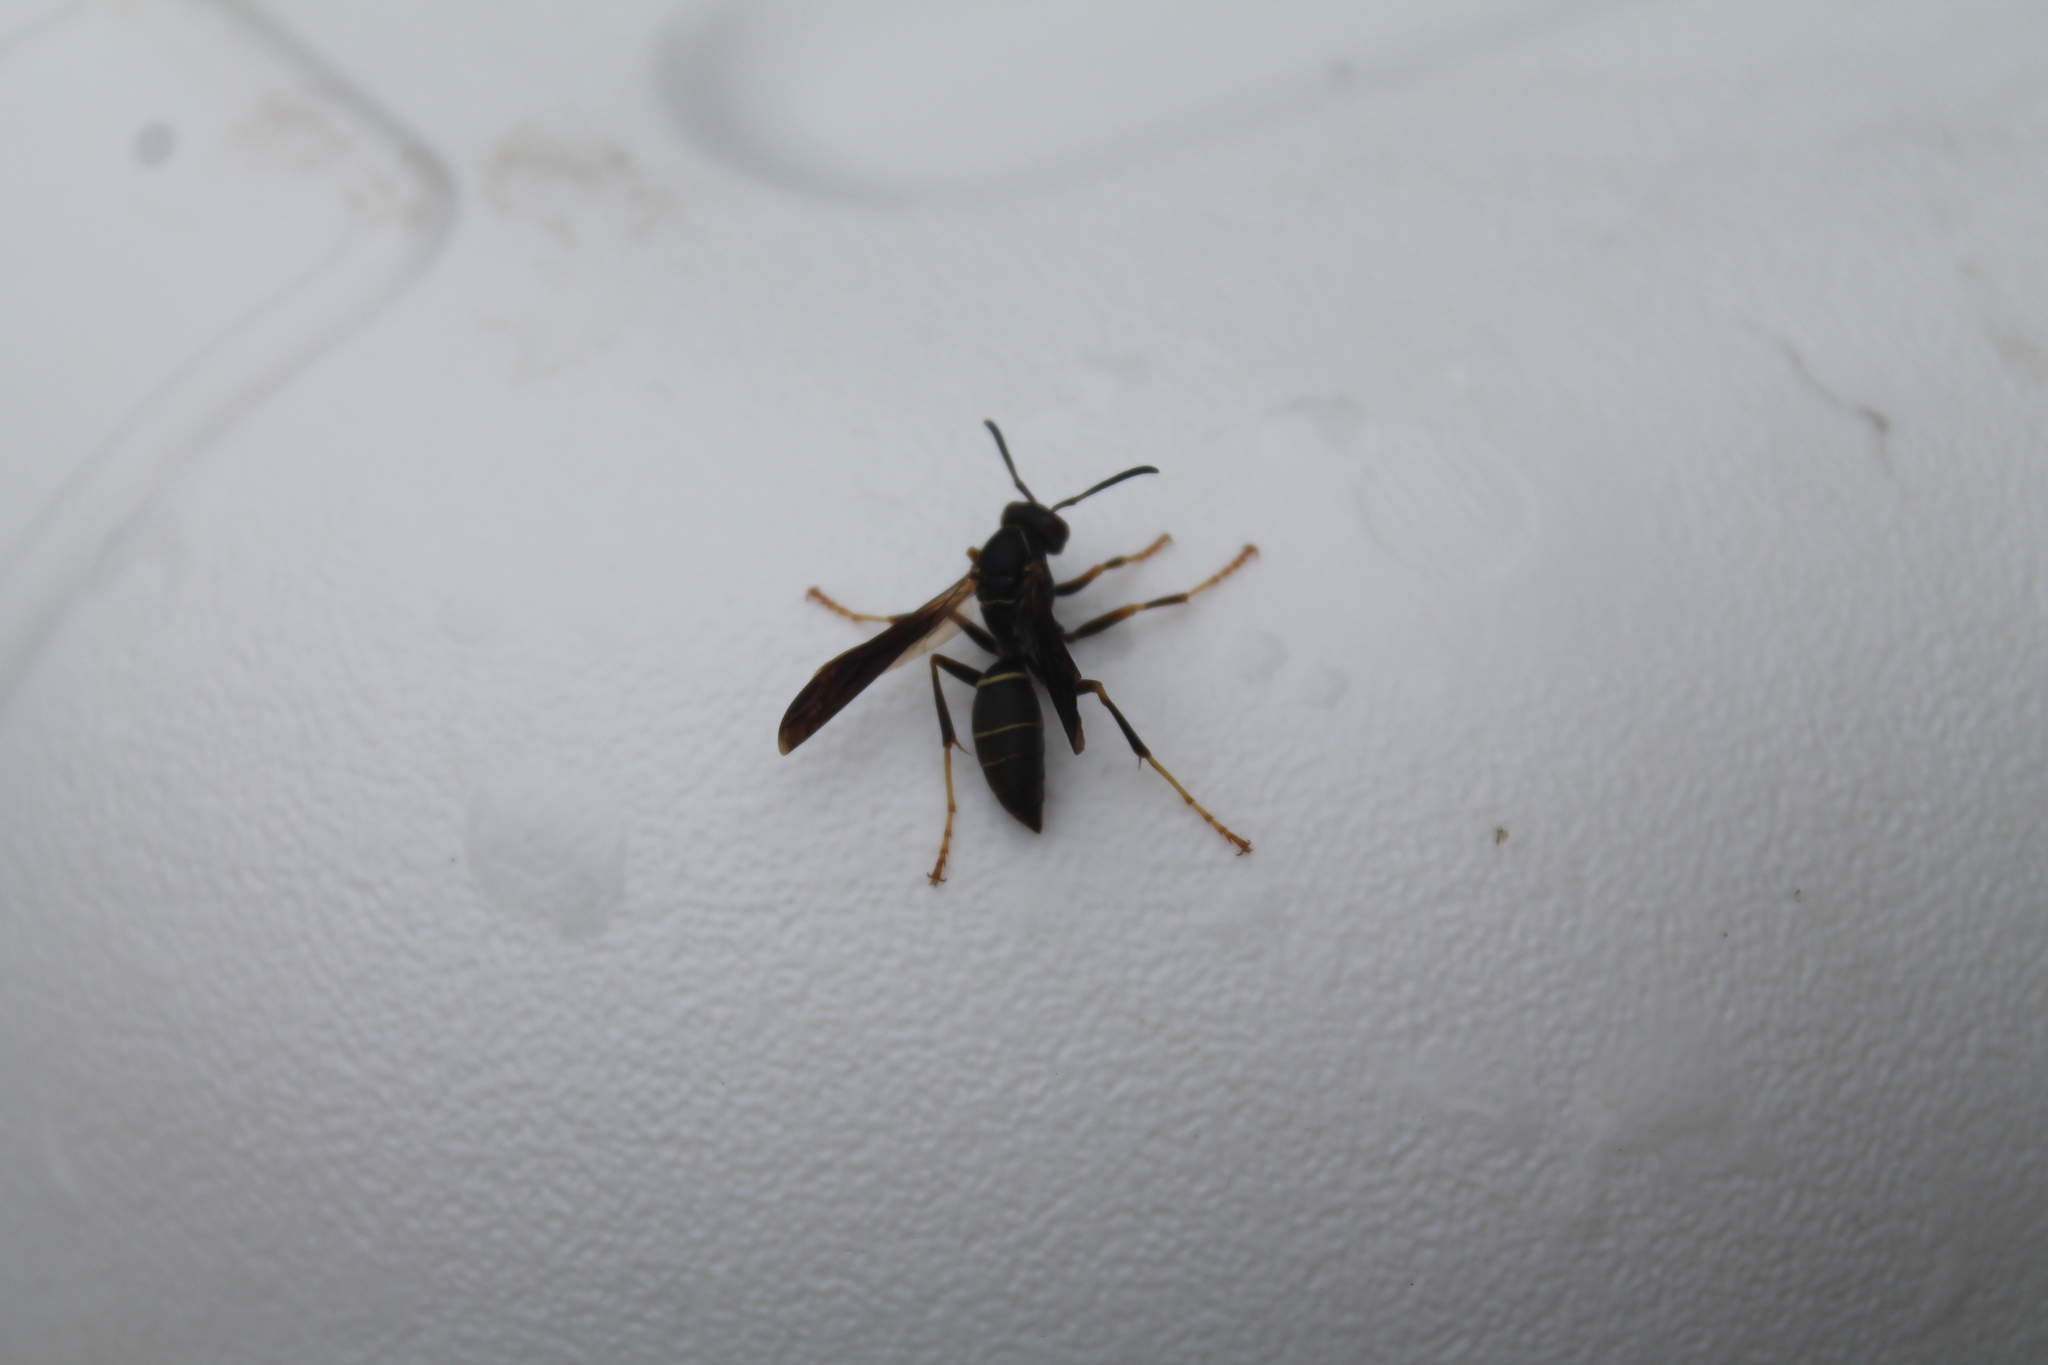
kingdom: Animalia
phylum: Arthropoda
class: Insecta
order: Hymenoptera
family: Eumenidae
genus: Polistes
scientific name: Polistes fuscatus
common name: Dark paper wasp
